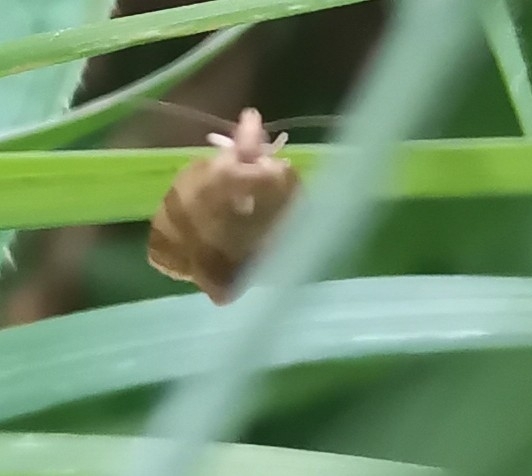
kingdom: Animalia
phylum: Arthropoda
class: Insecta
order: Lepidoptera
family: Tortricidae
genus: Pandemis
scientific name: Pandemis cerasana
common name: Barred fruit-tree tortrix
